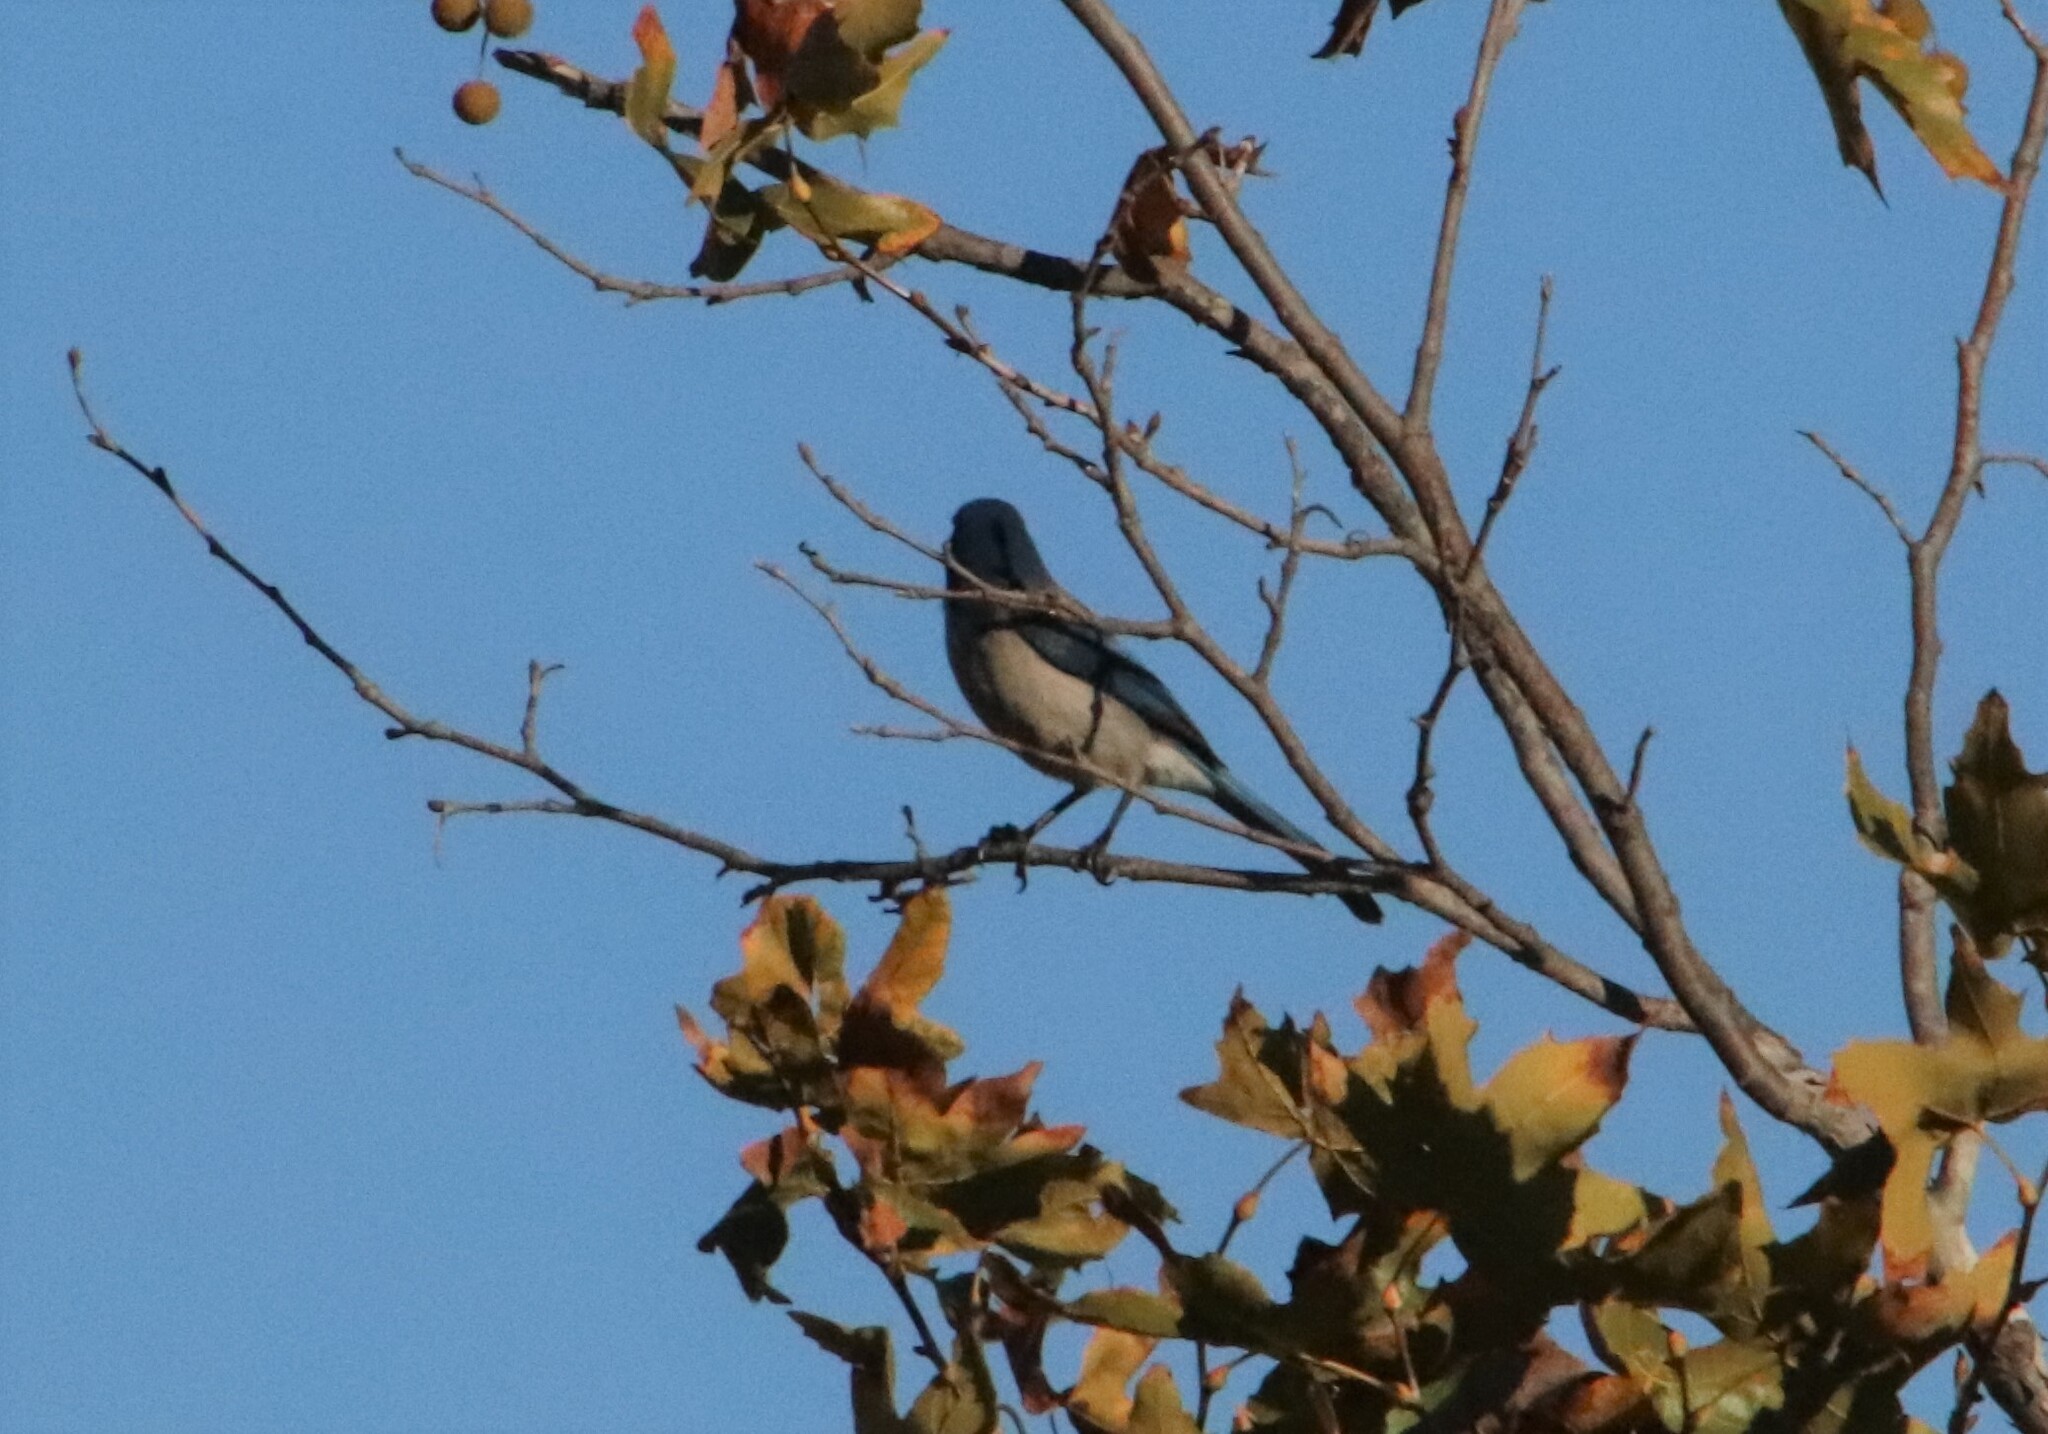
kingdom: Animalia
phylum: Chordata
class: Aves
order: Passeriformes
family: Corvidae
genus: Aphelocoma
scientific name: Aphelocoma californica
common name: California scrub-jay
